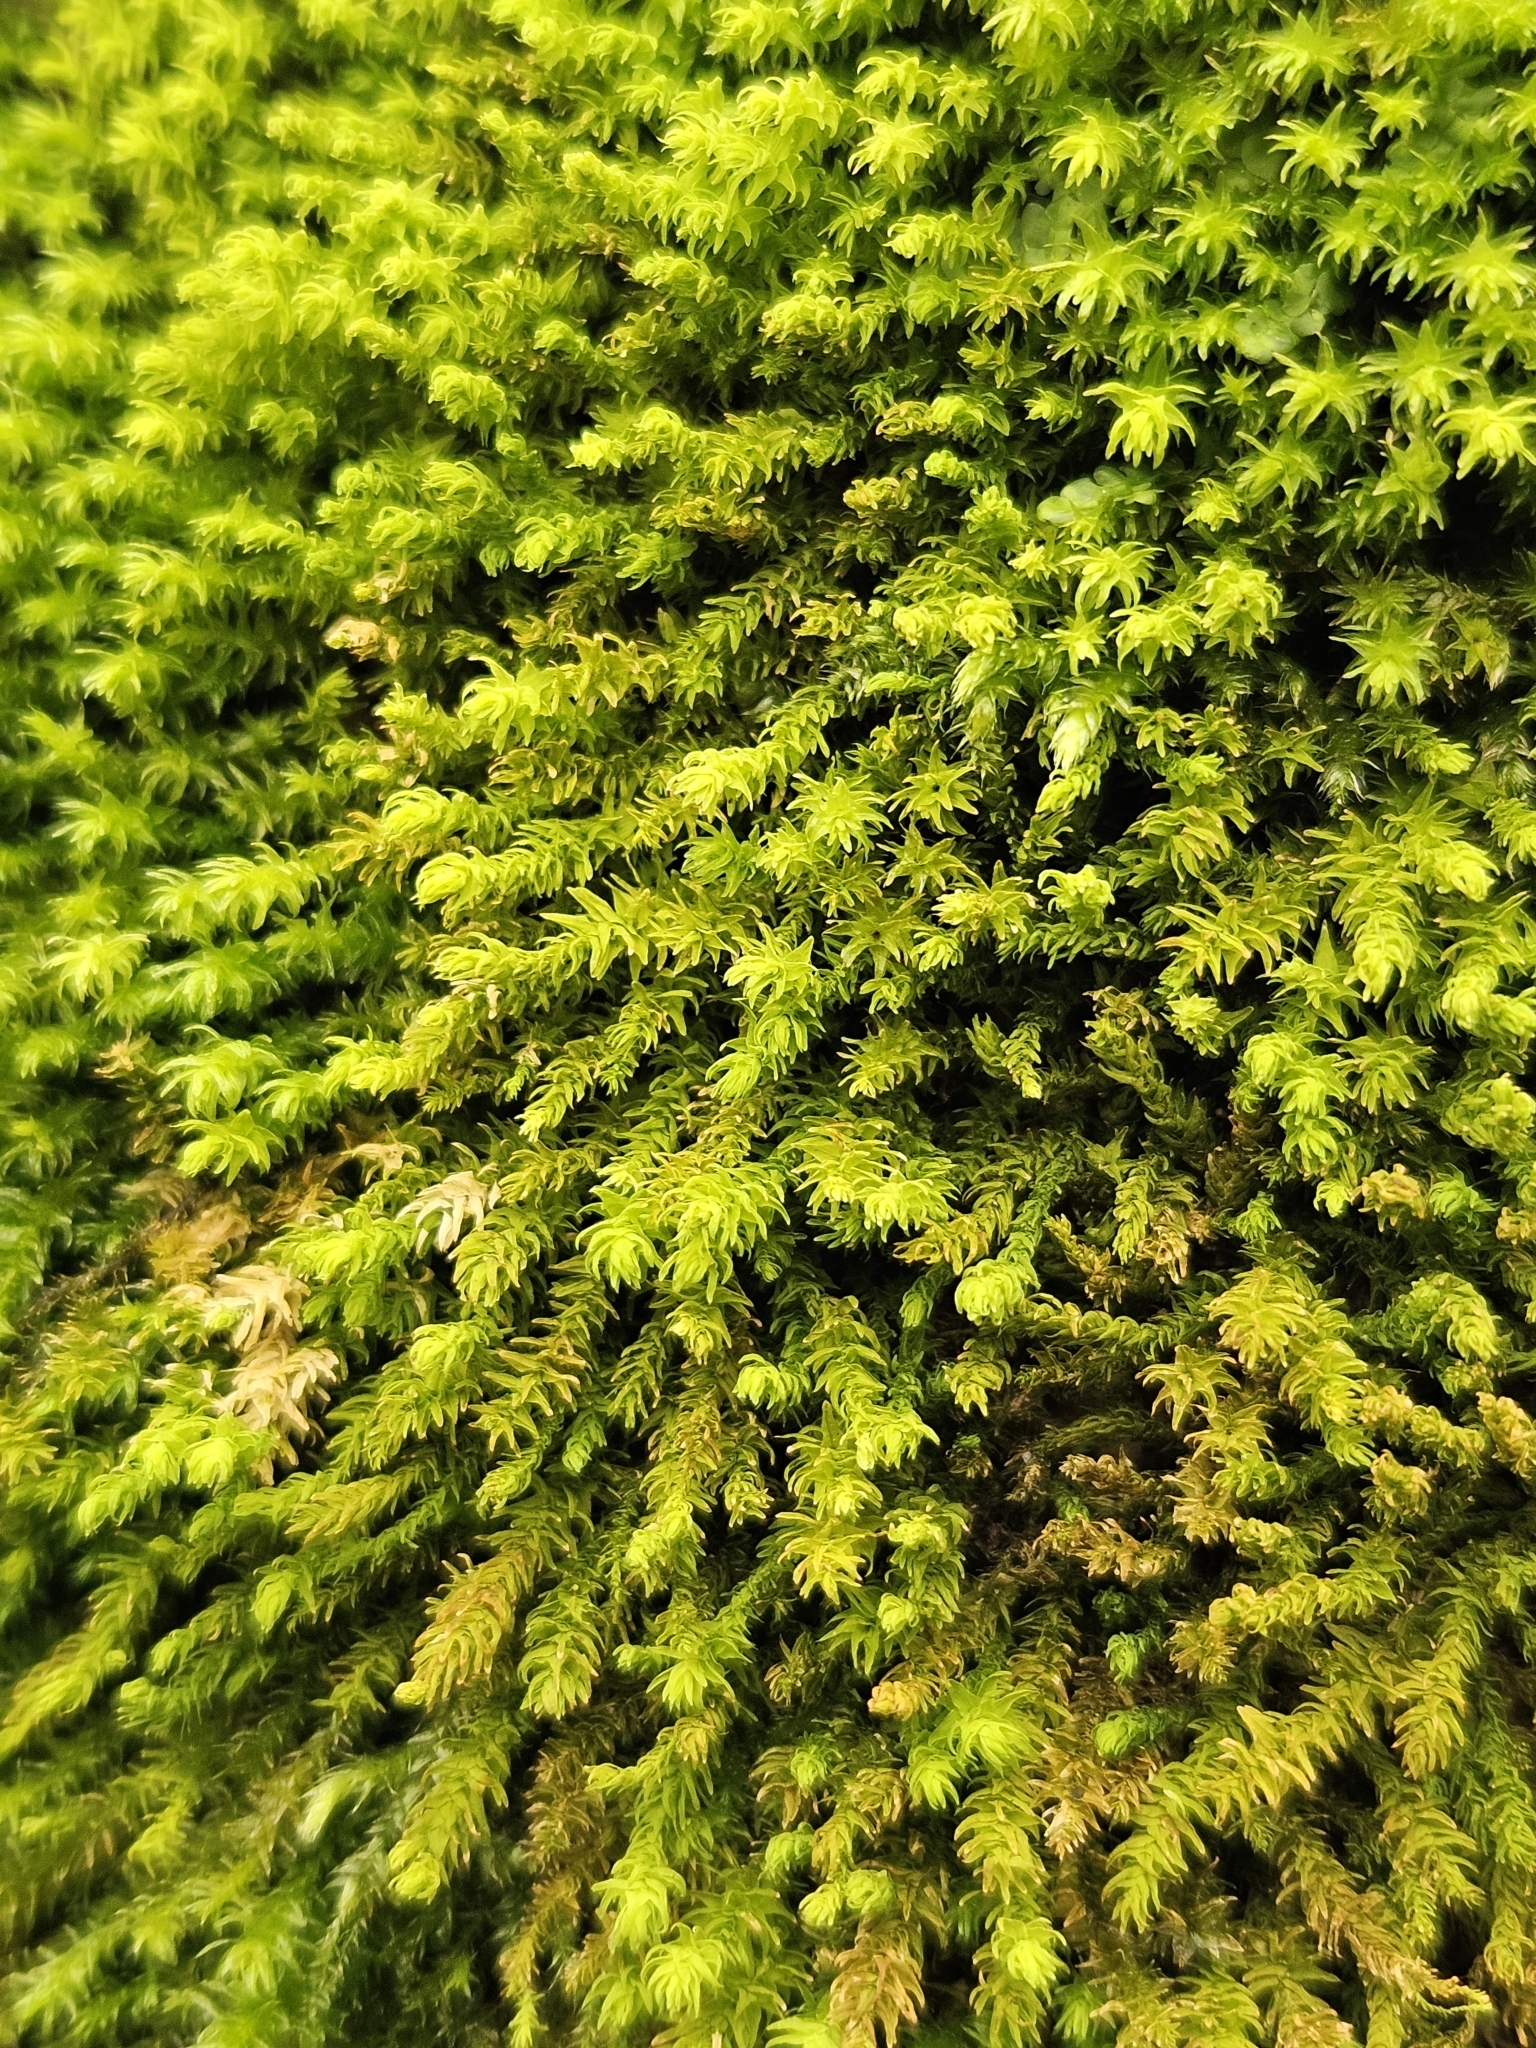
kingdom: Plantae
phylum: Bryophyta
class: Bryopsida
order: Hypnales
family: Anomodontaceae
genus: Anomodon
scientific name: Anomodon viticulosus
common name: Tall anomodon
